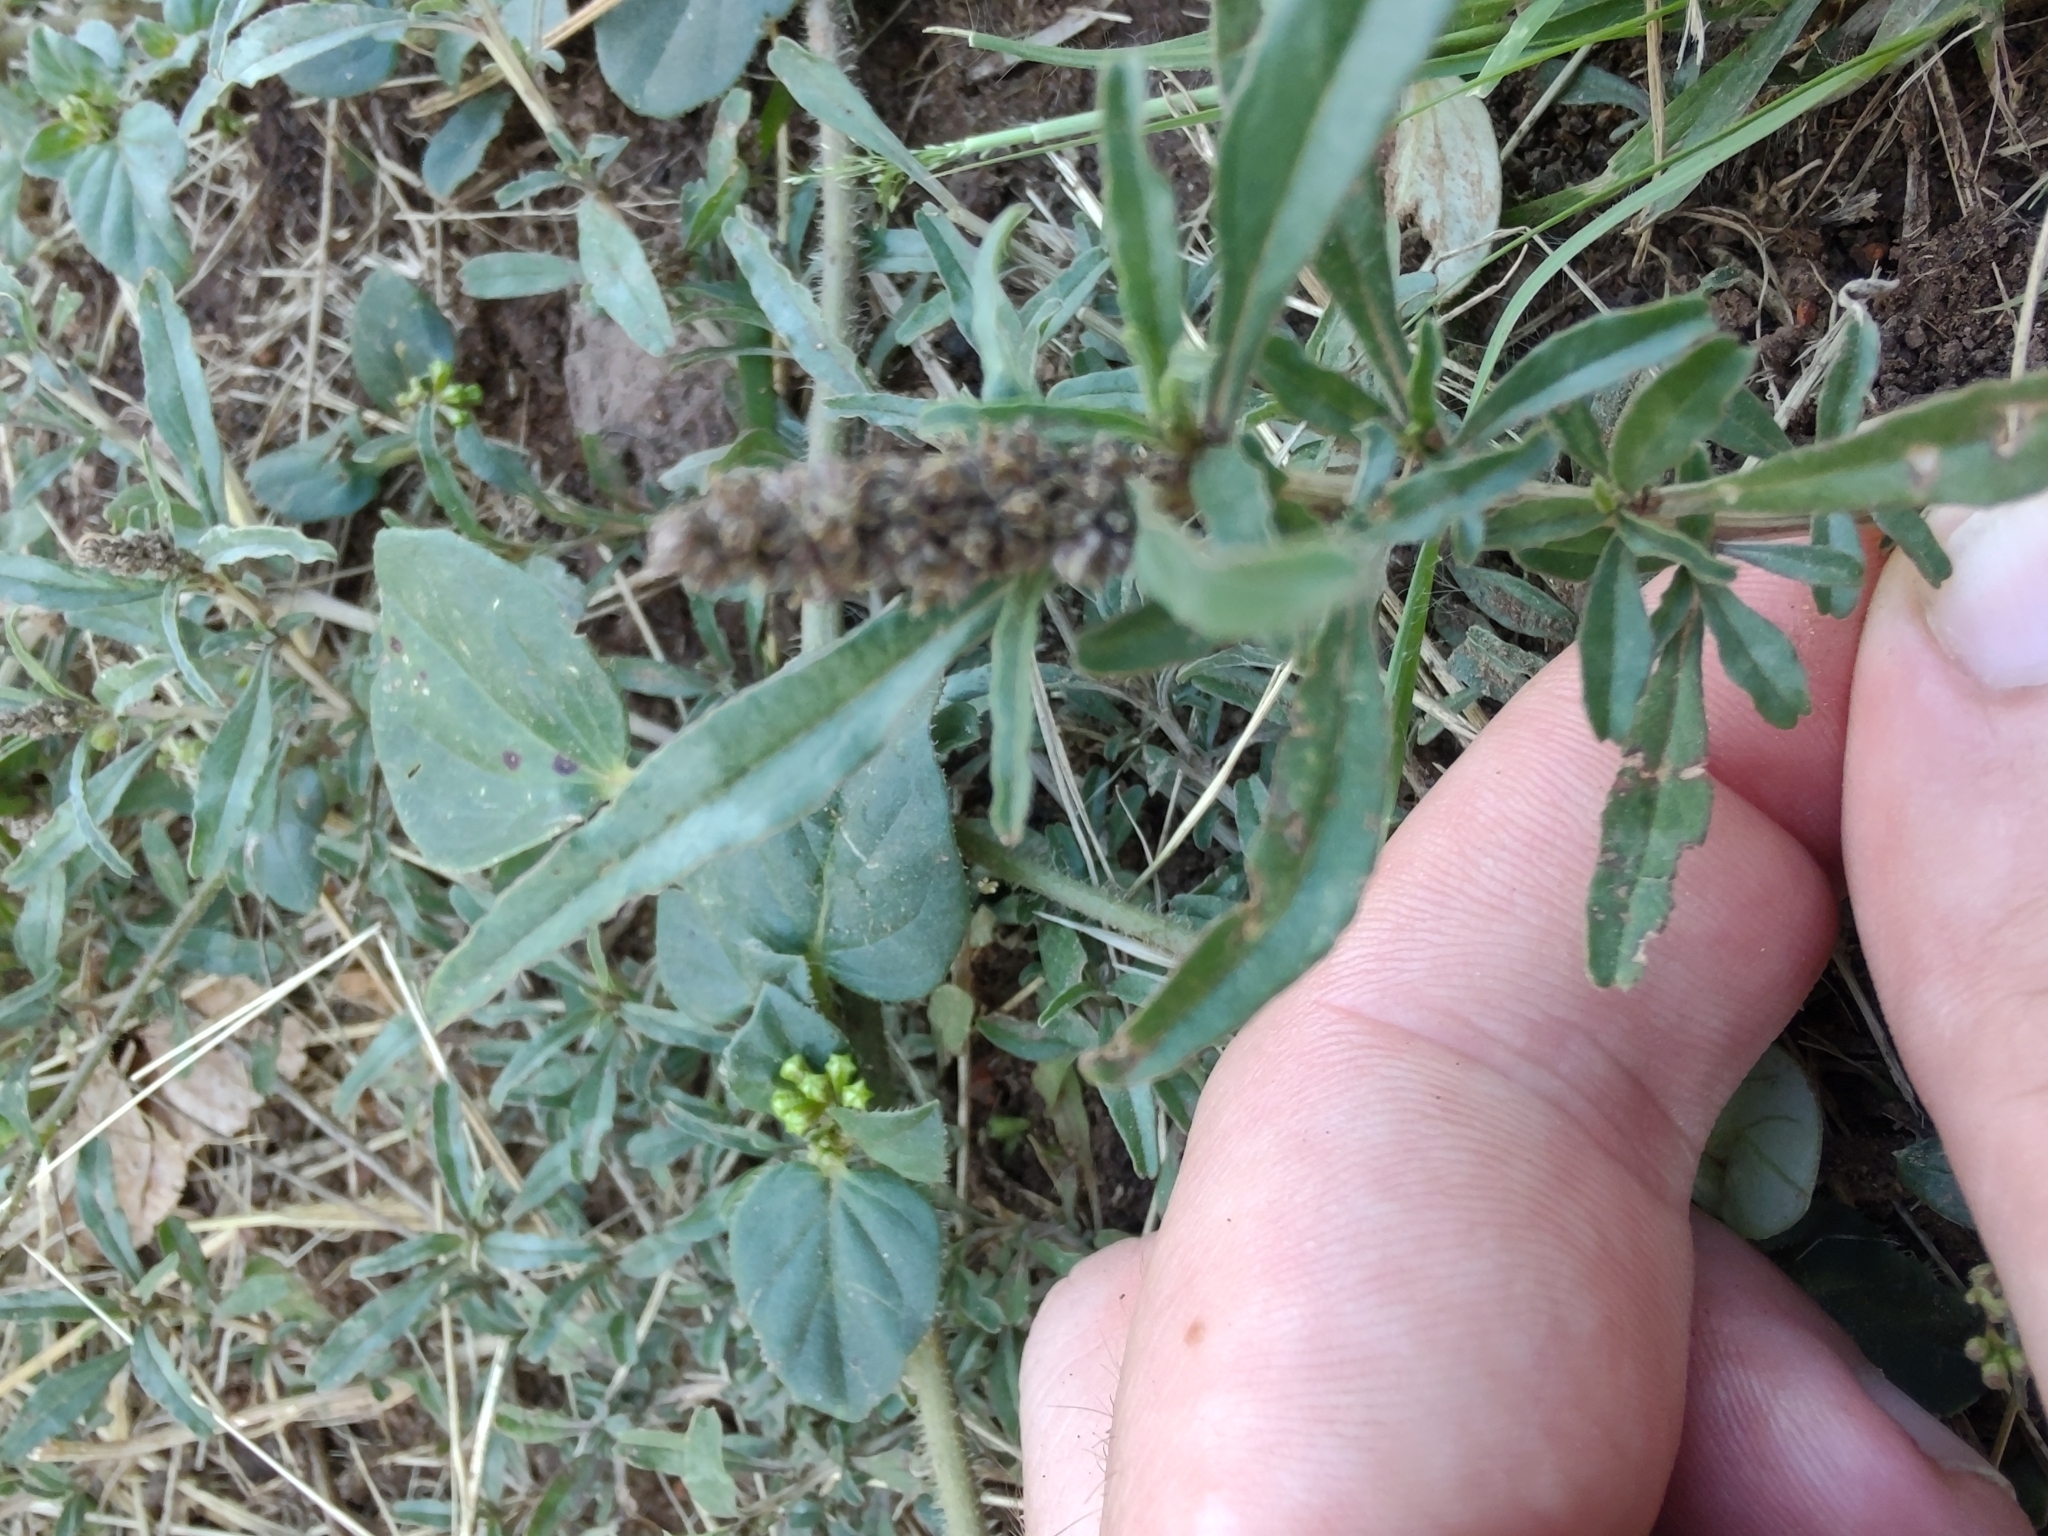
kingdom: Plantae
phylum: Tracheophyta
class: Magnoliopsida
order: Caryophyllales
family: Amaranthaceae
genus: Amaranthus
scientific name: Amaranthus muricatus
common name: African amaranth
